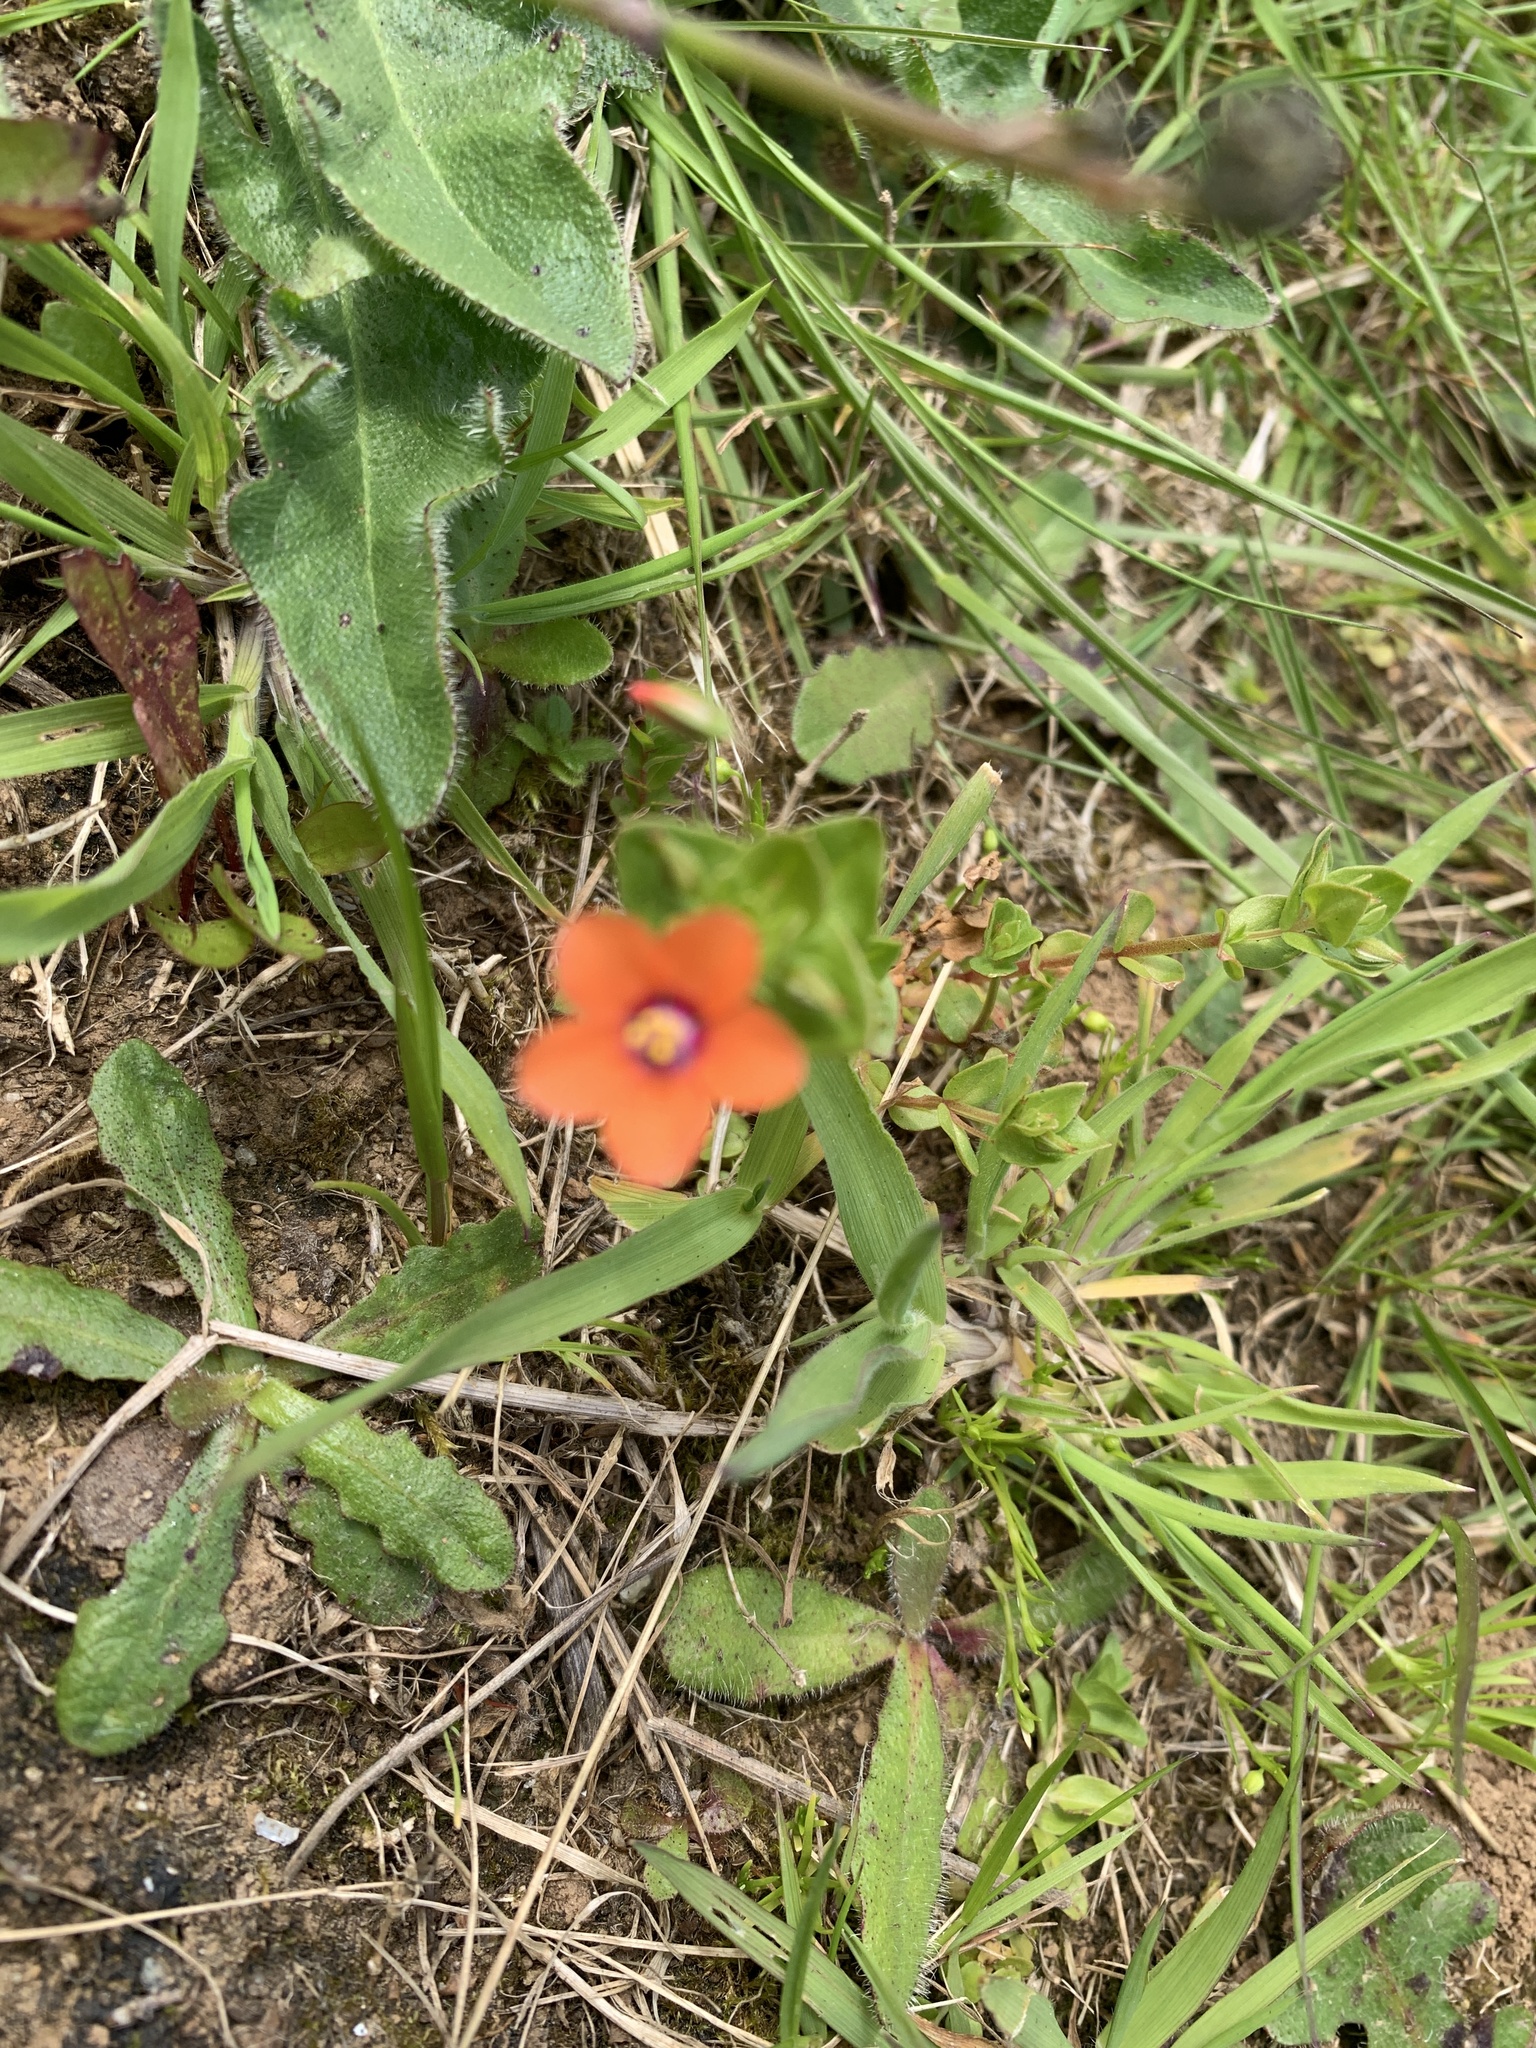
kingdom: Plantae
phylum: Tracheophyta
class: Magnoliopsida
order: Ericales
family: Primulaceae
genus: Lysimachia
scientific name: Lysimachia arvensis
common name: Scarlet pimpernel
